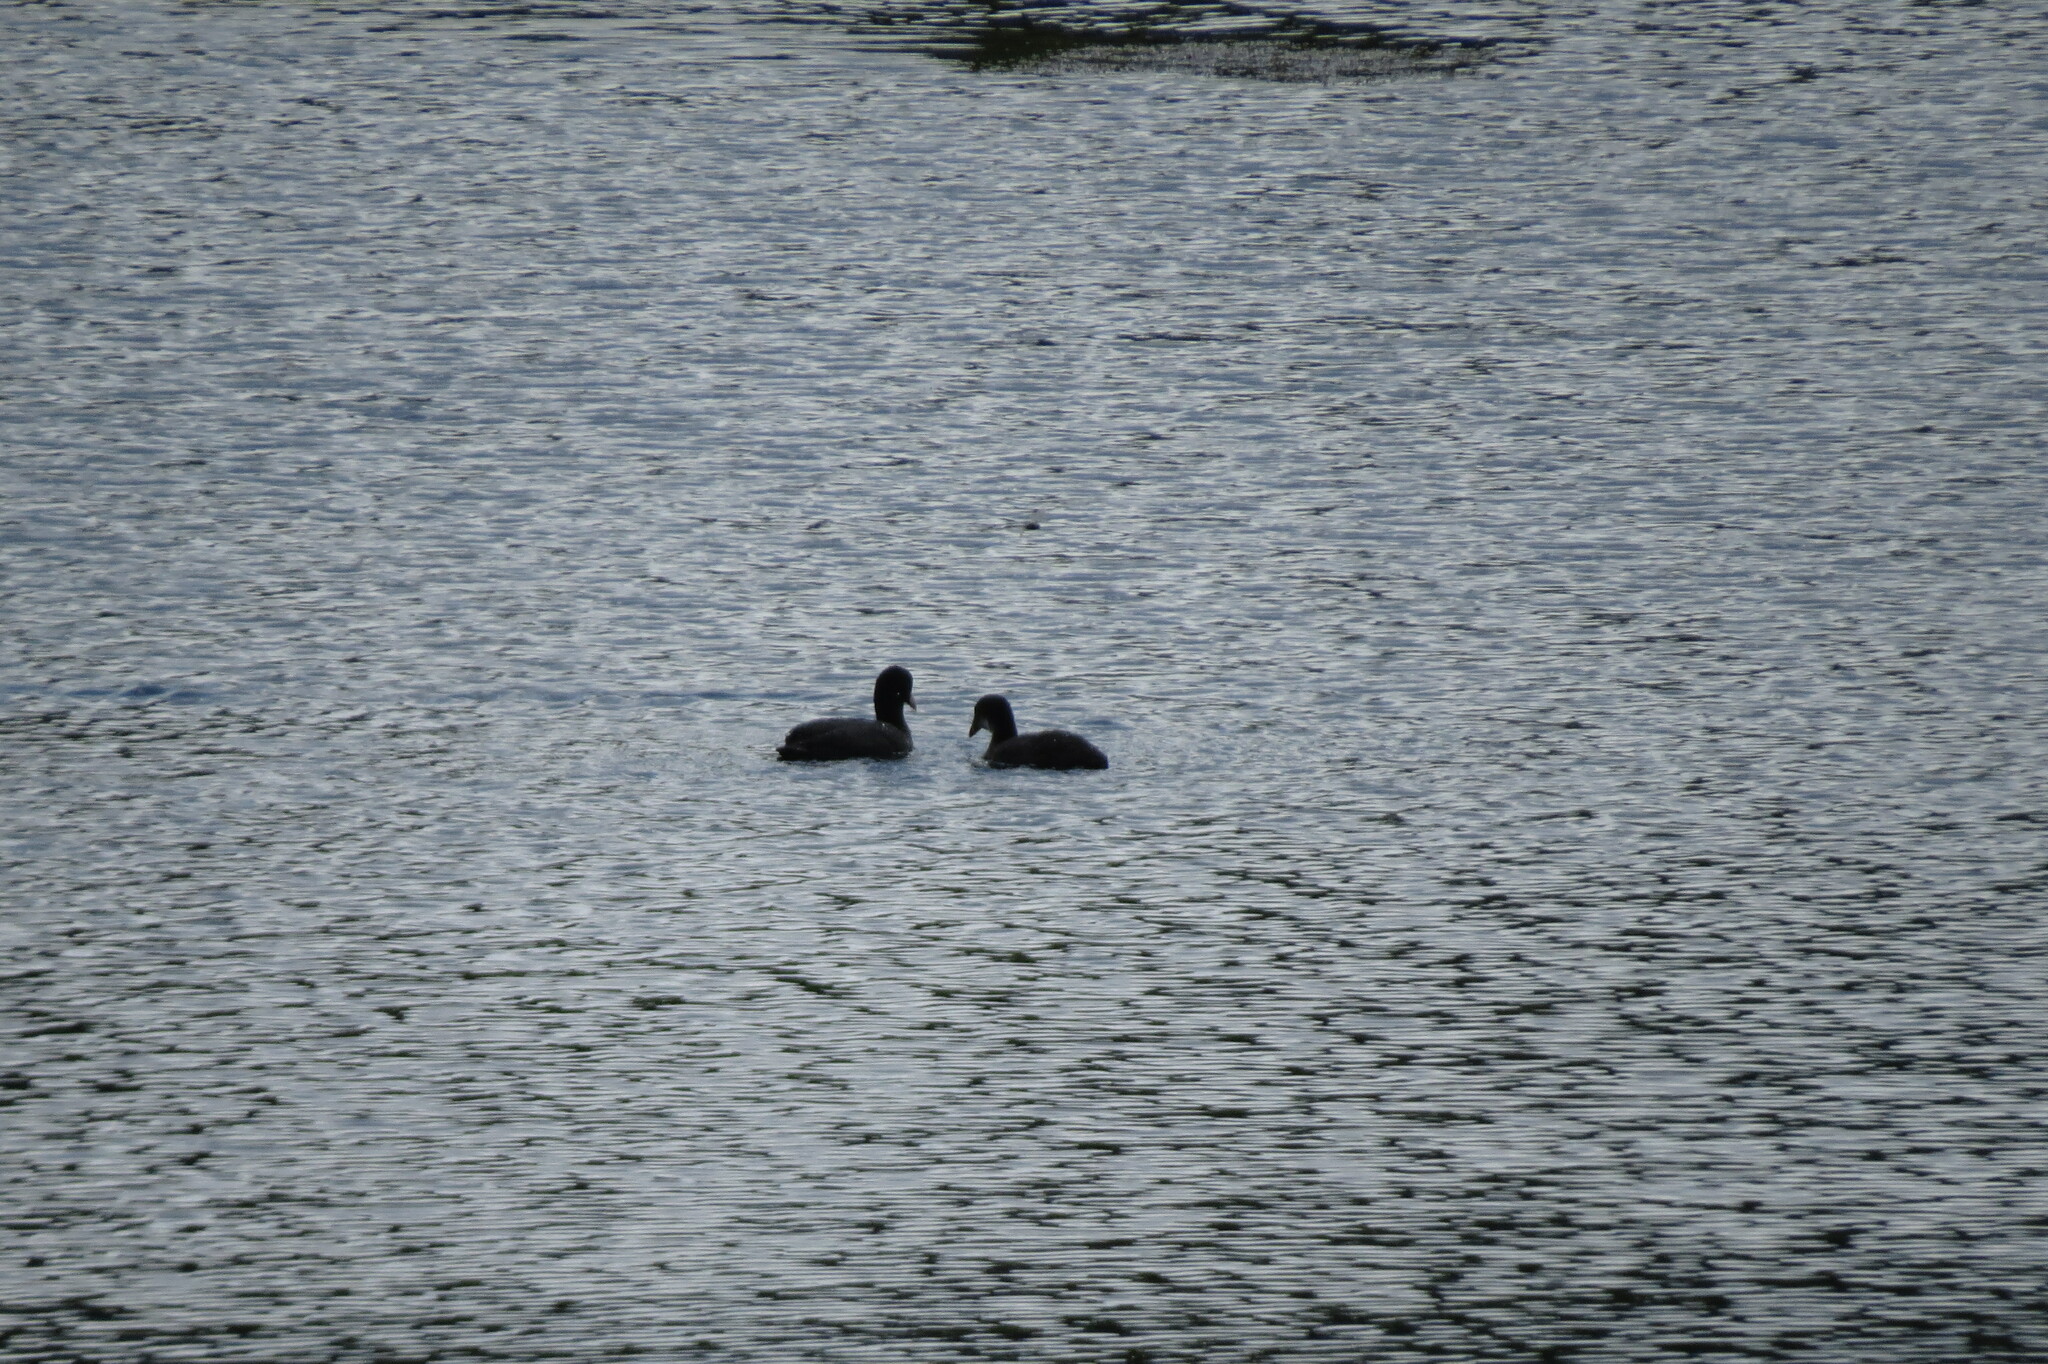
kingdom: Animalia
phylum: Chordata
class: Aves
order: Gruiformes
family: Rallidae
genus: Fulica
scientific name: Fulica atra
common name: Eurasian coot
